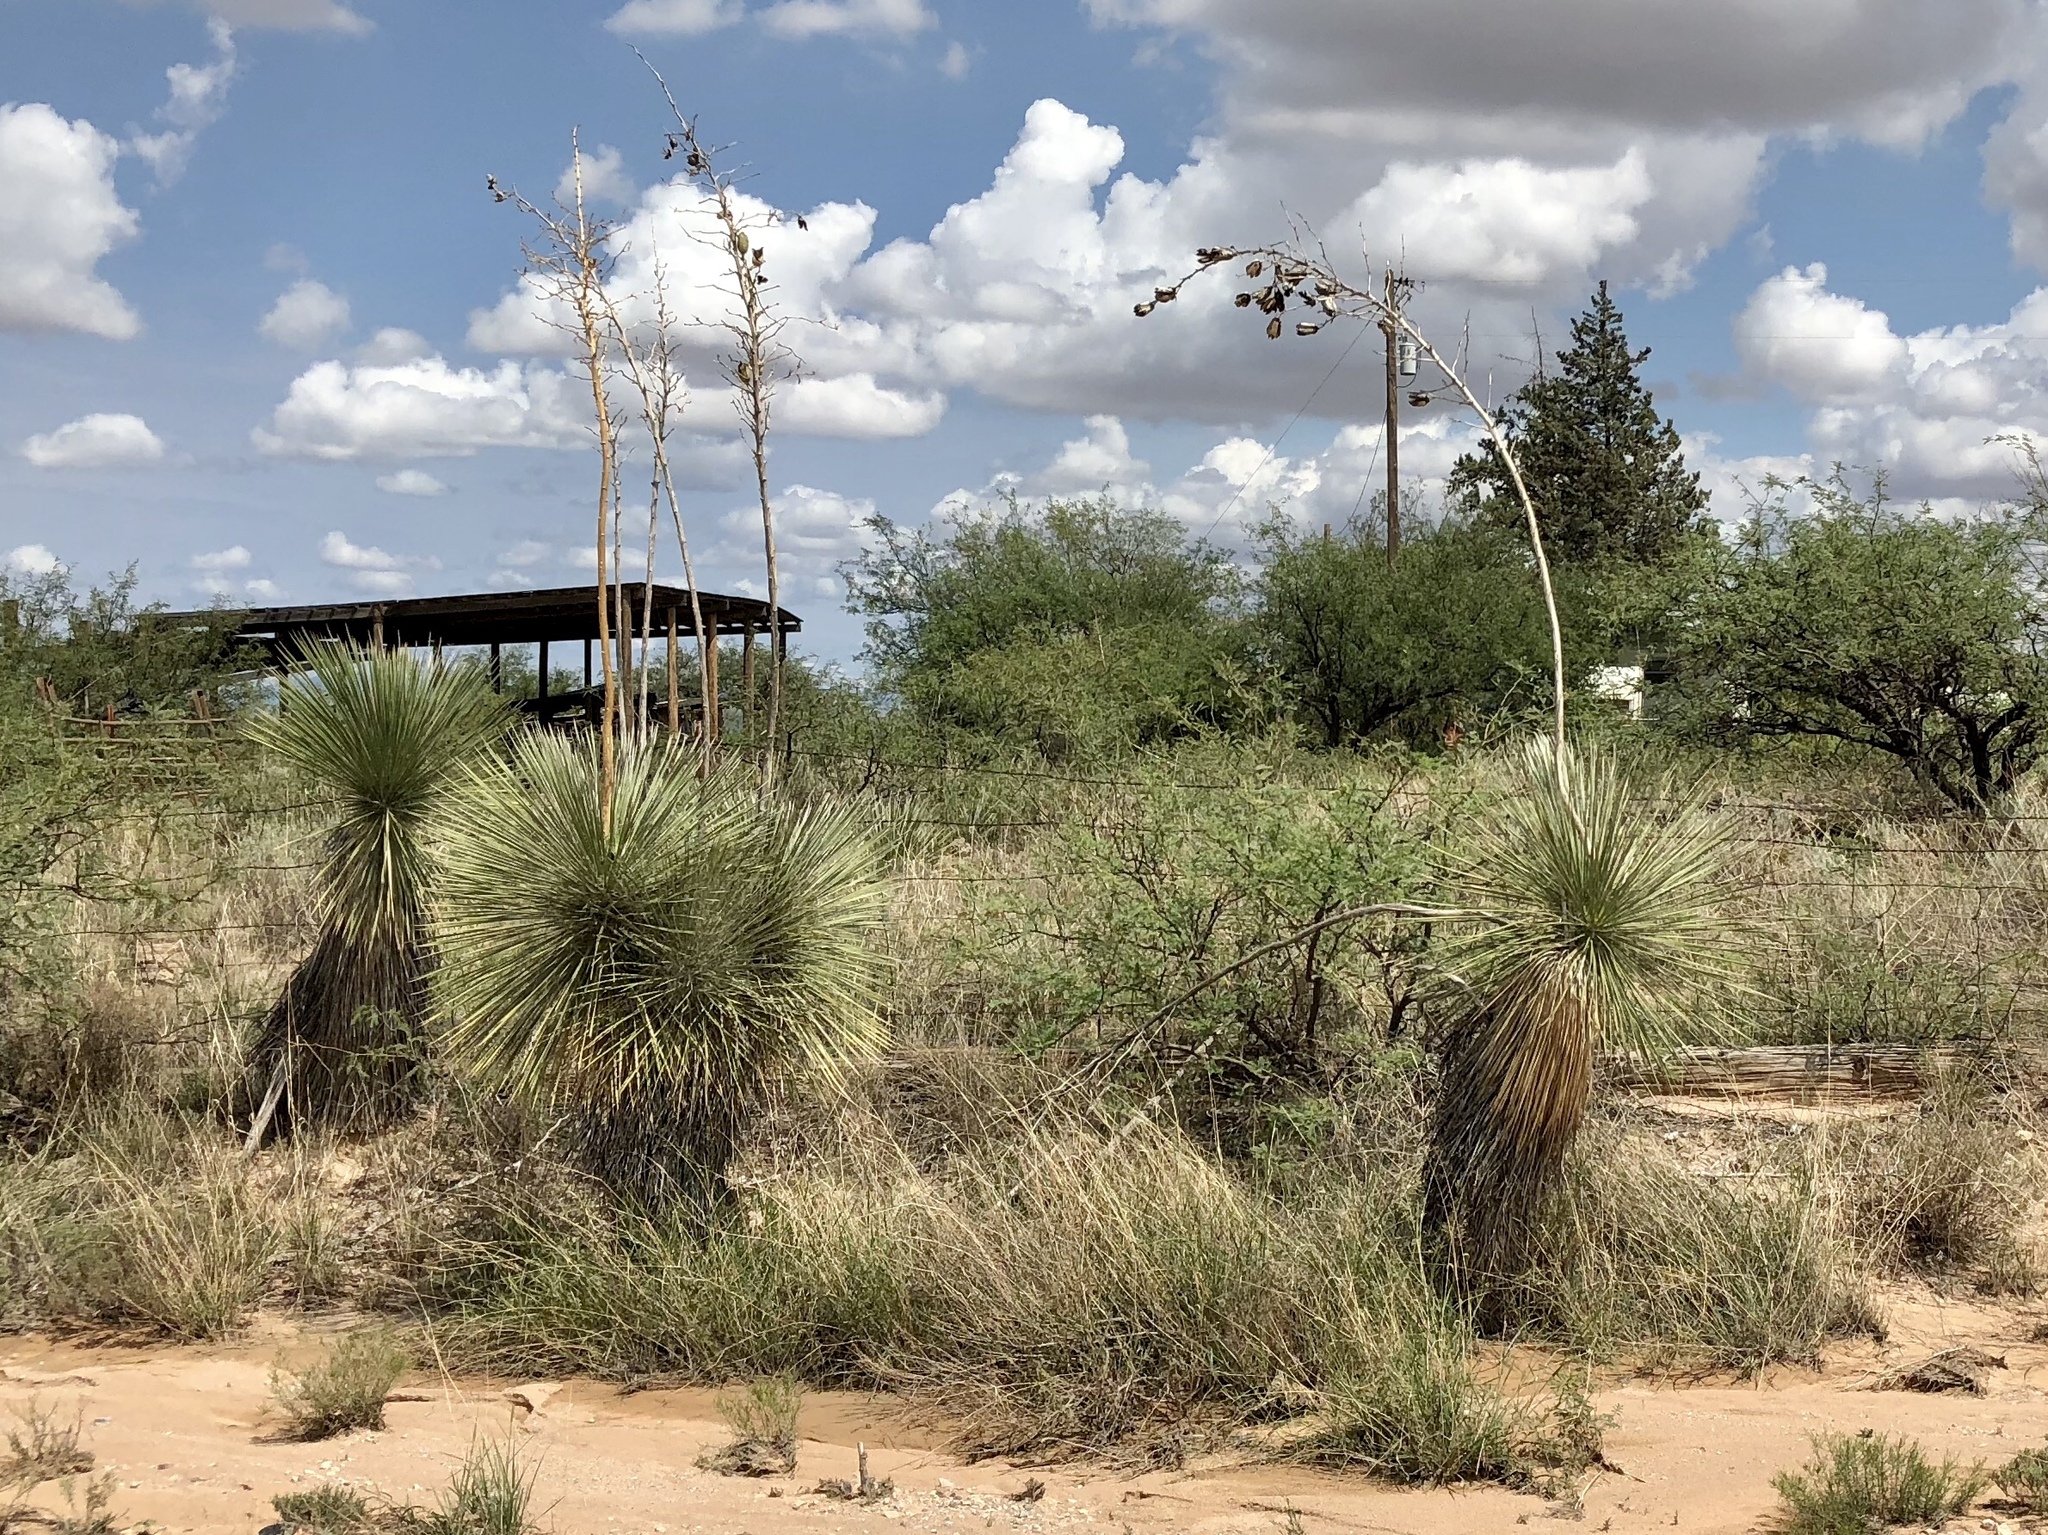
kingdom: Plantae
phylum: Tracheophyta
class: Liliopsida
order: Asparagales
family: Asparagaceae
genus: Yucca
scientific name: Yucca elata
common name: Palmella
